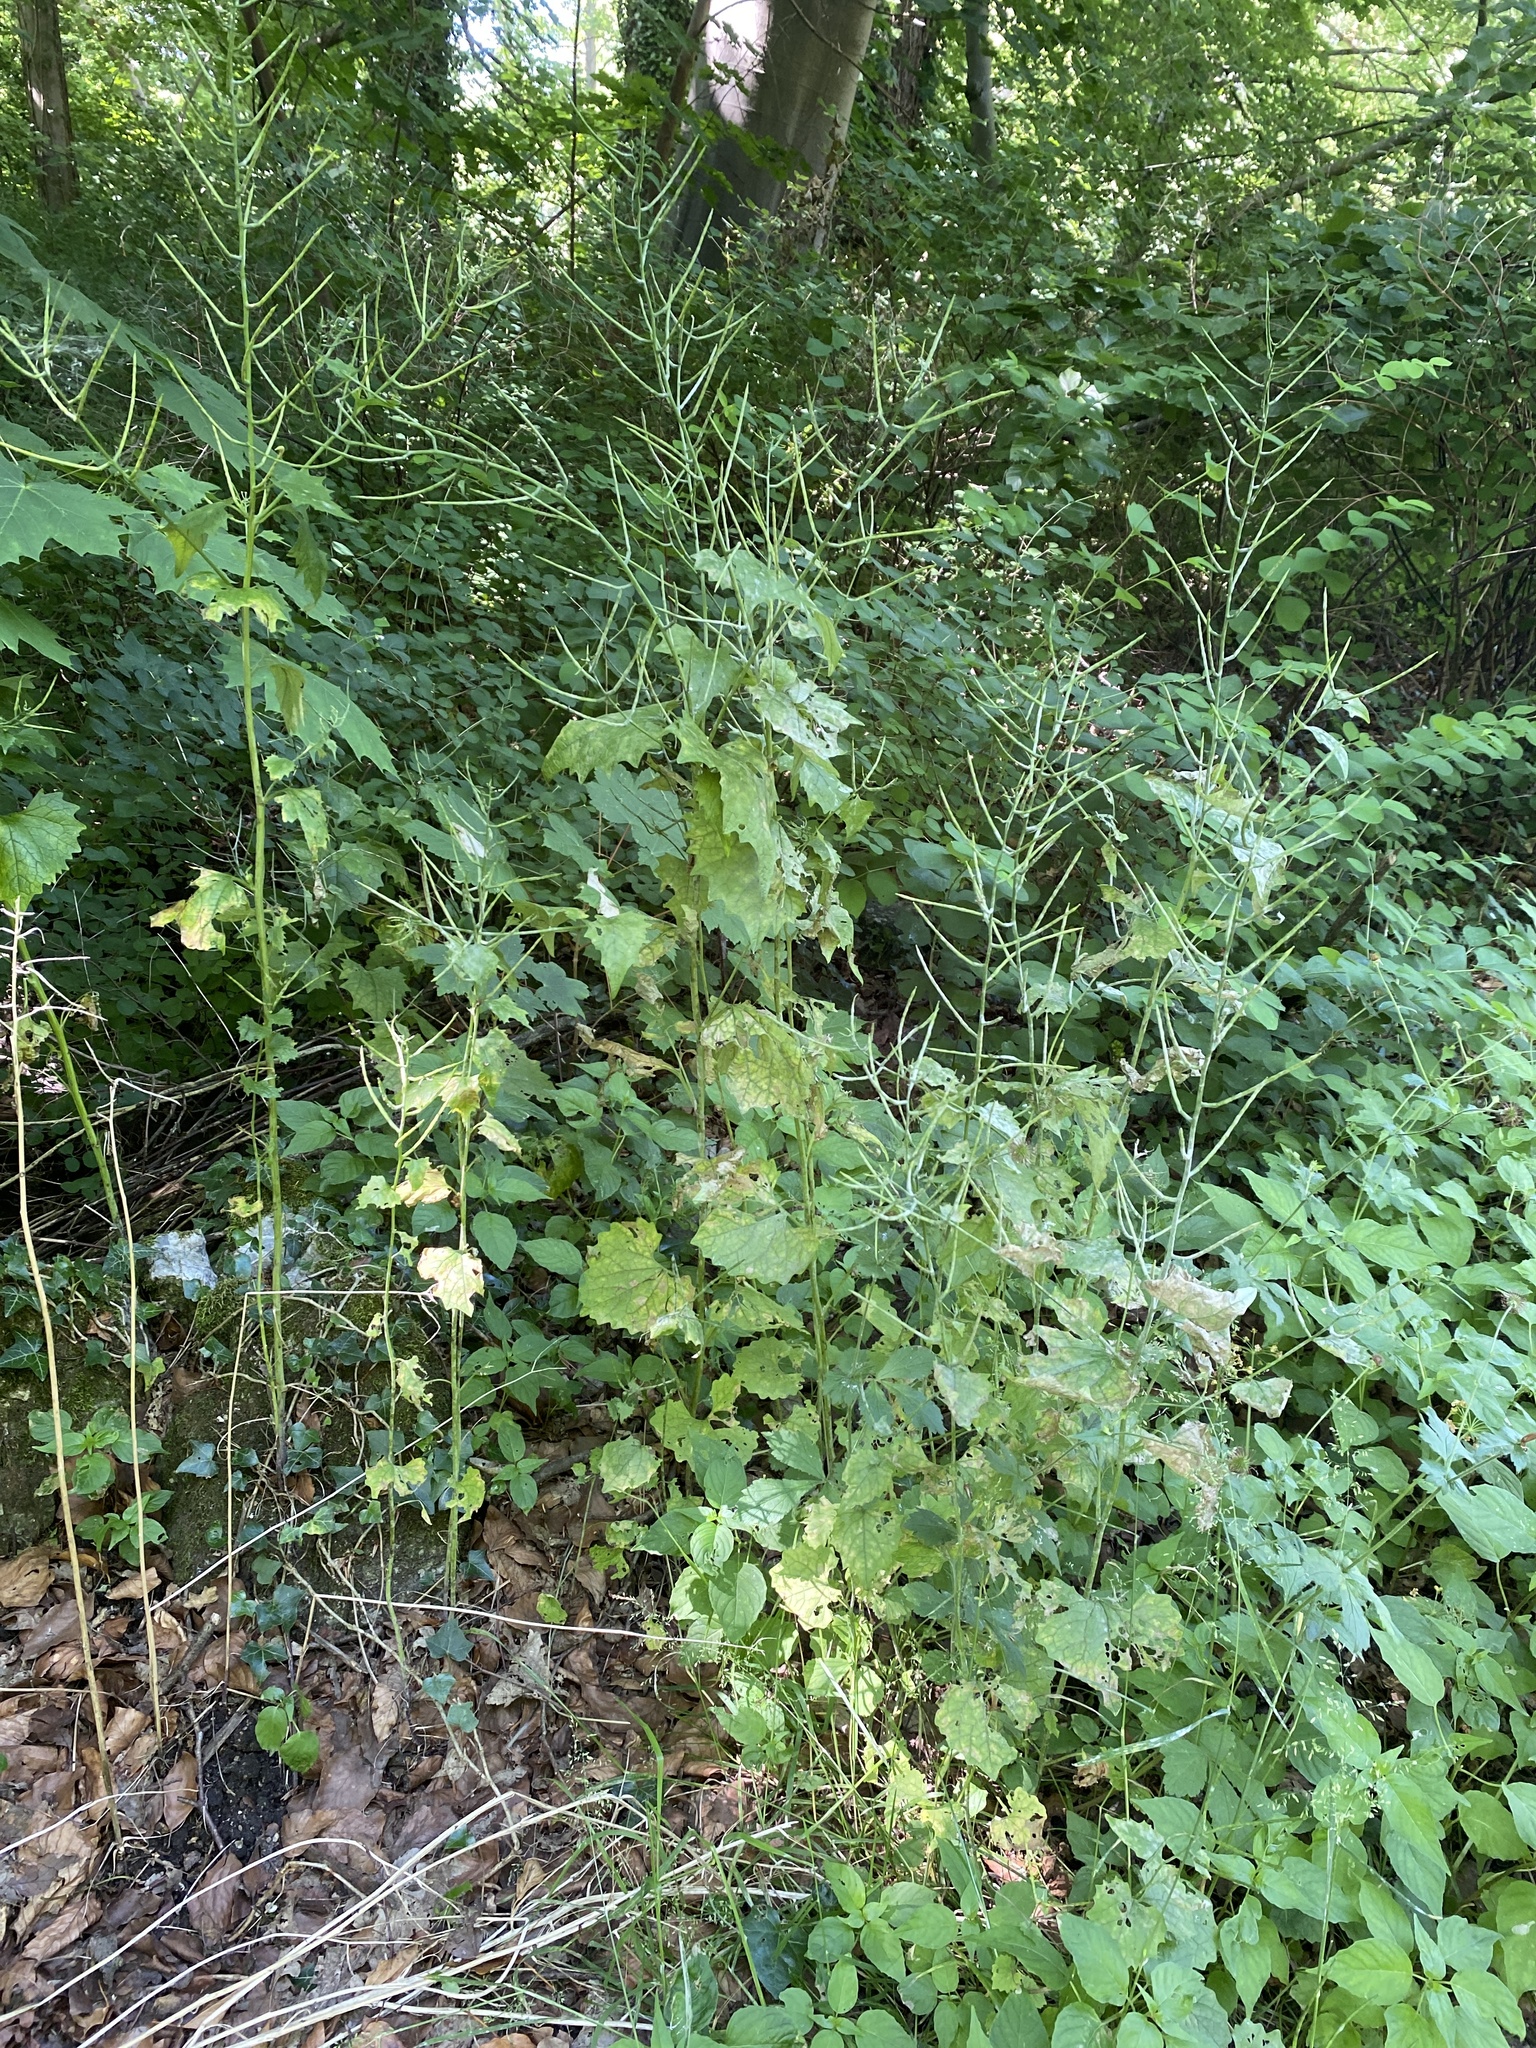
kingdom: Plantae
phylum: Tracheophyta
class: Magnoliopsida
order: Brassicales
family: Brassicaceae
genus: Alliaria
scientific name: Alliaria petiolata
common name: Garlic mustard
